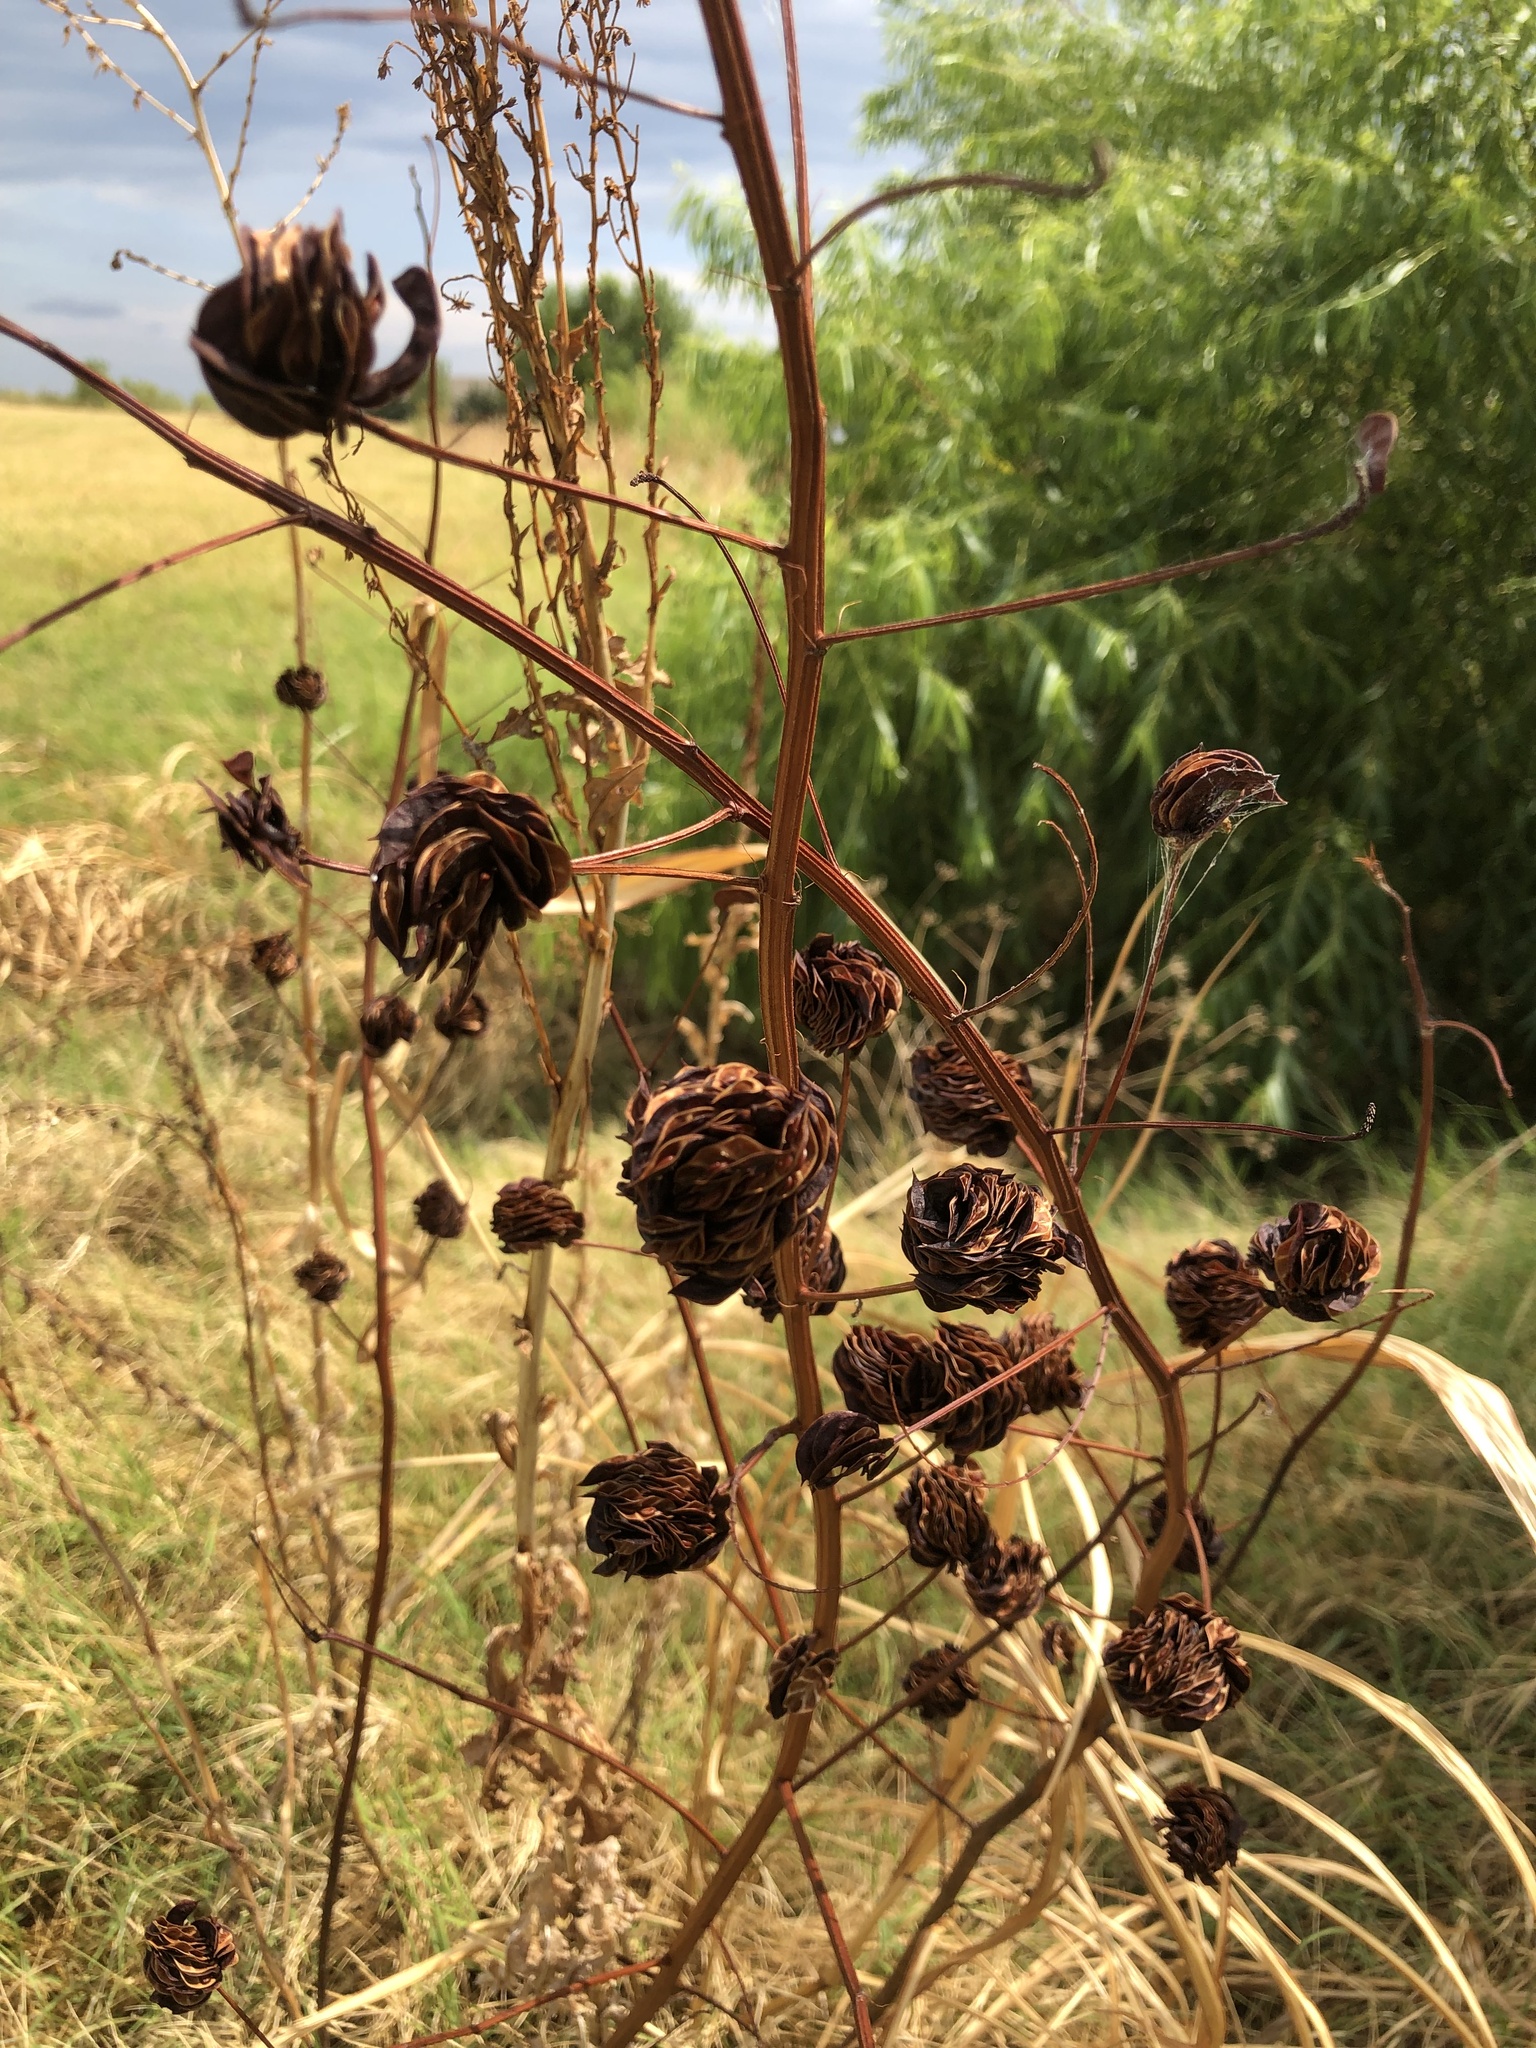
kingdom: Plantae
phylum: Tracheophyta
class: Magnoliopsida
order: Fabales
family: Fabaceae
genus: Desmanthus
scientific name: Desmanthus illinoensis
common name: Illinois bundle-flower
